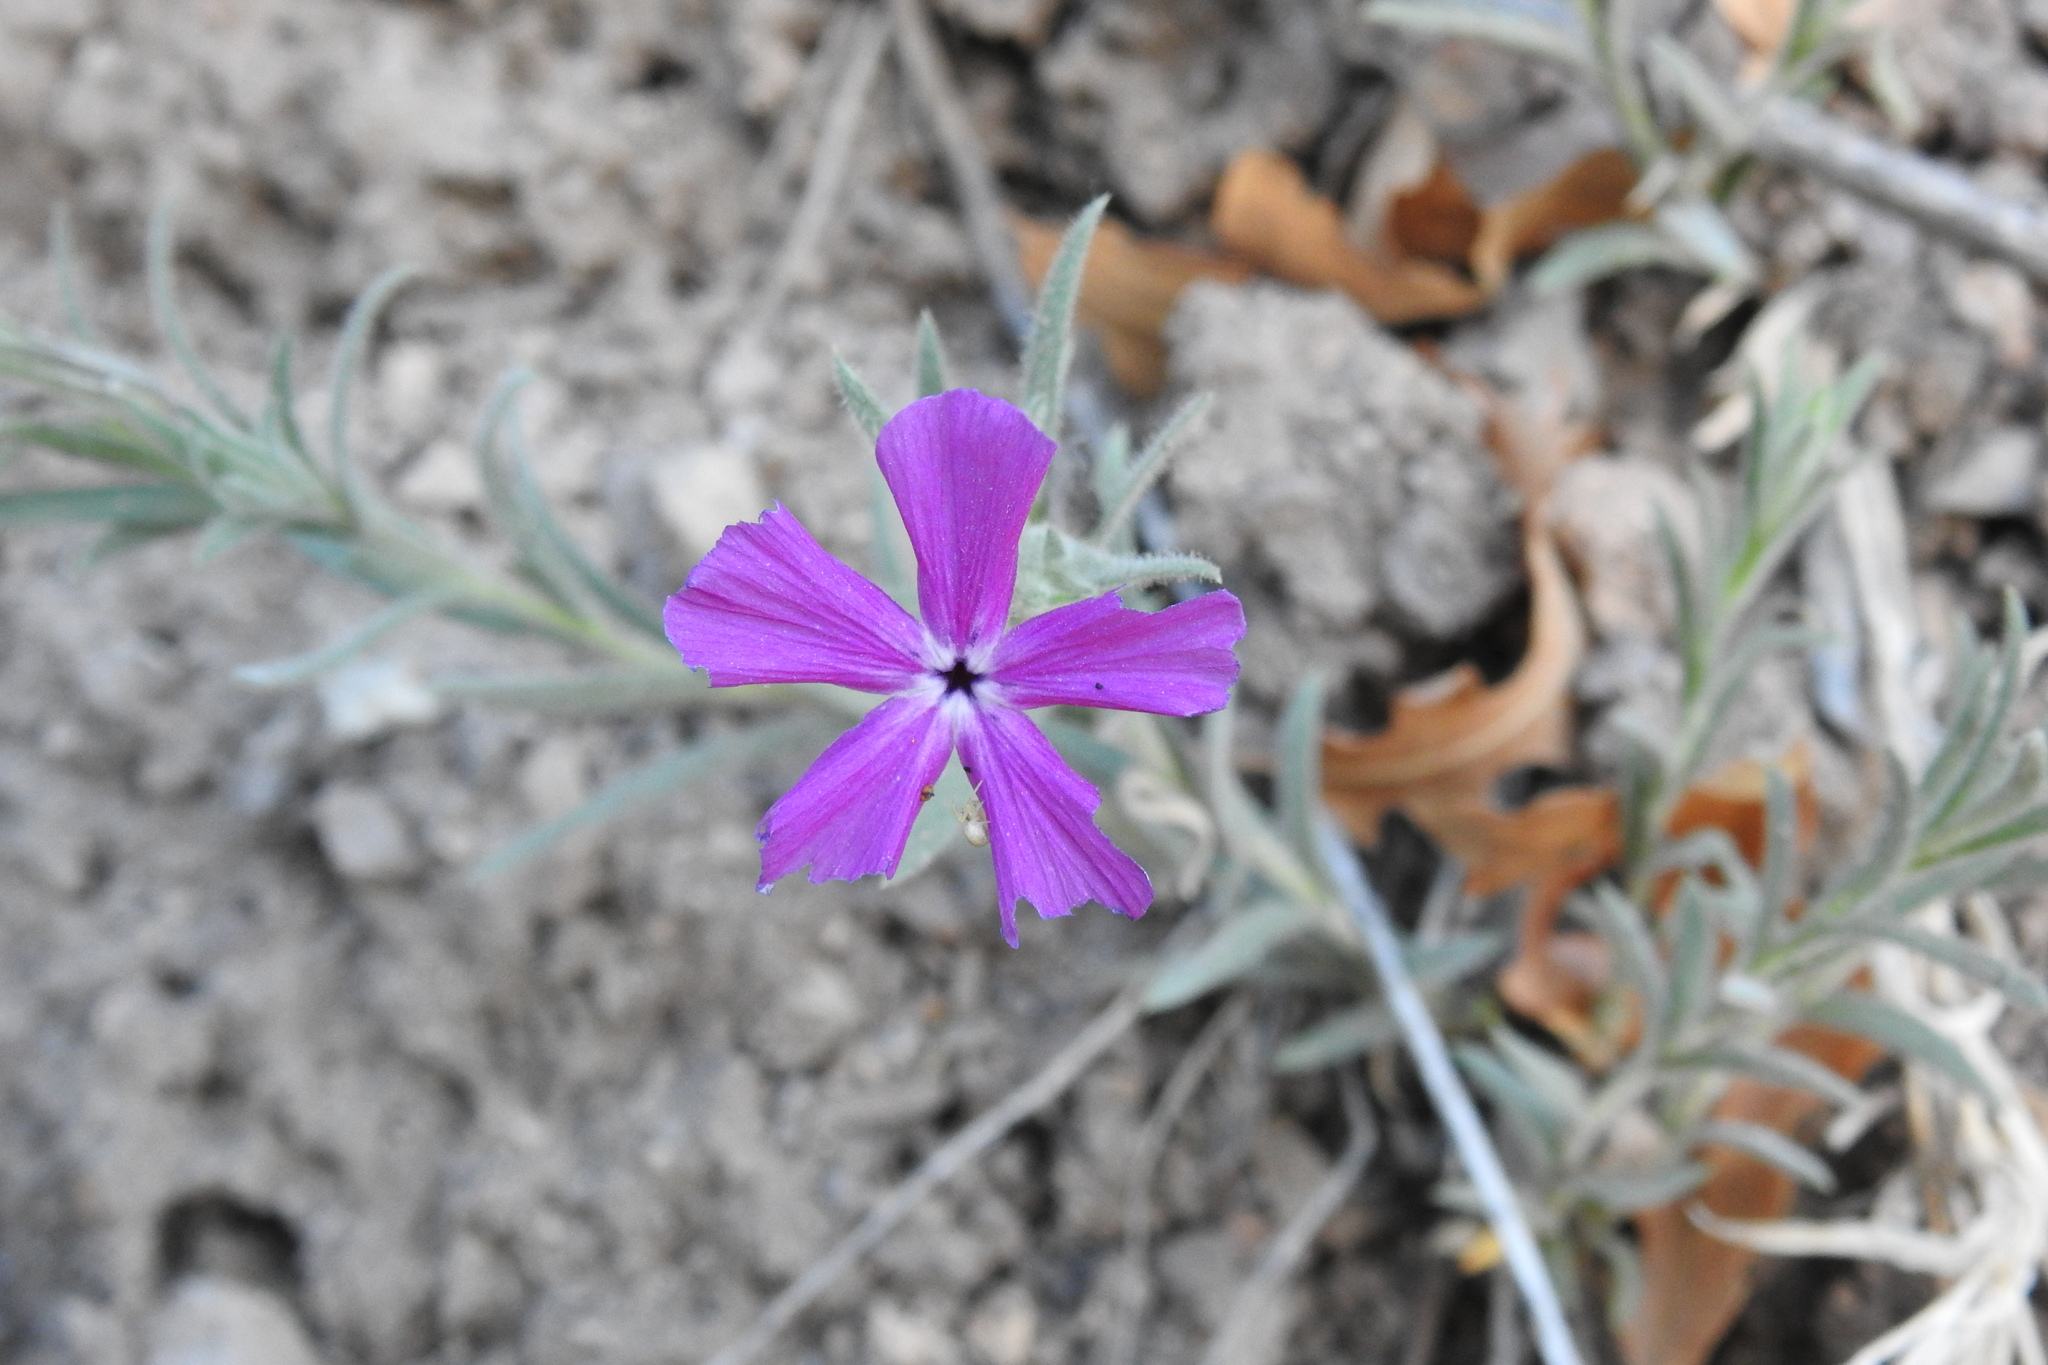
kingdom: Plantae
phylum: Tracheophyta
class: Magnoliopsida
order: Ericales
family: Polemoniaceae
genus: Phlox
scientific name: Phlox nana
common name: Santa fe phlox
